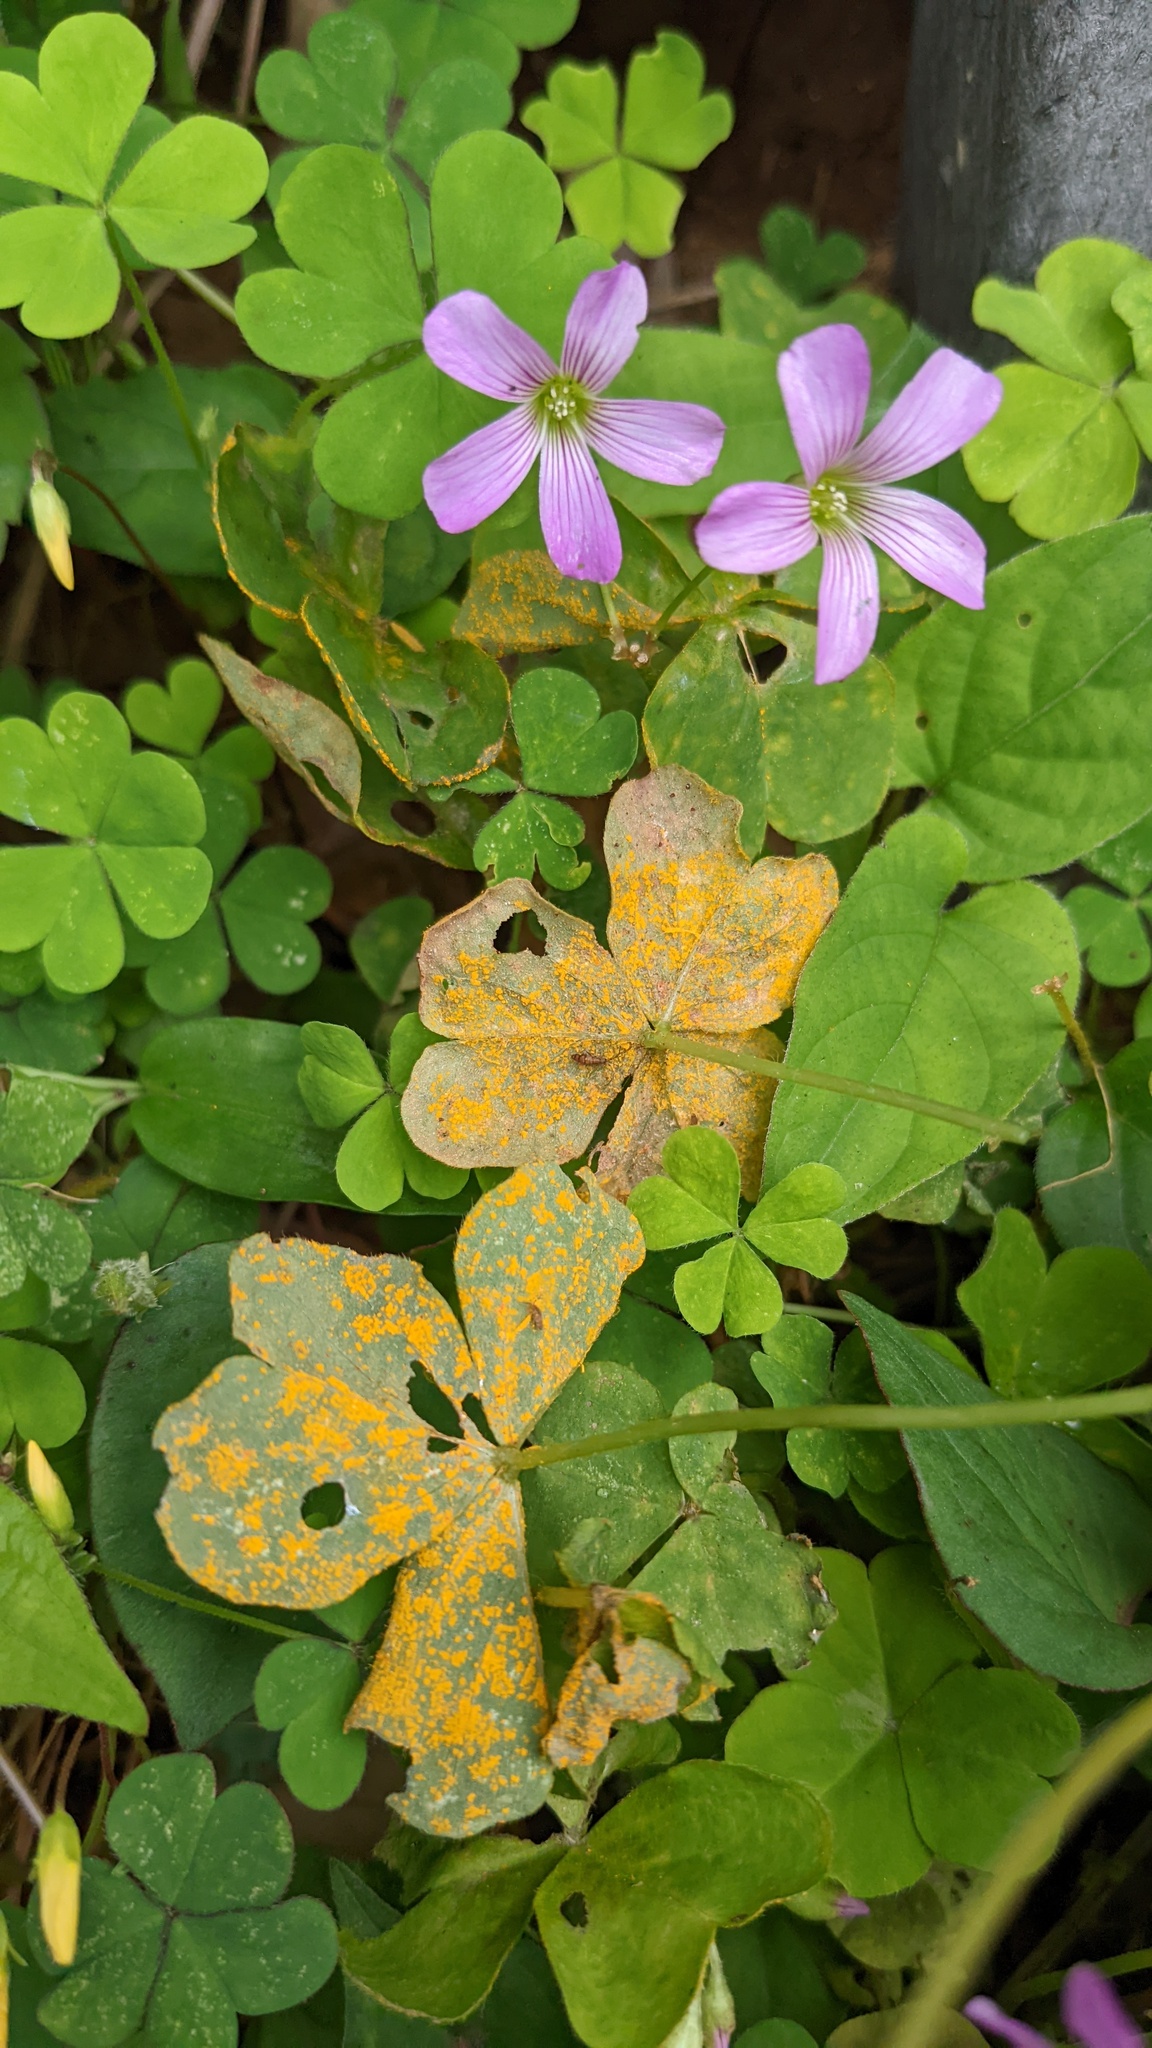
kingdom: Fungi
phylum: Basidiomycota
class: Pucciniomycetes
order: Pucciniales
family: Pucciniaceae
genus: Puccinia
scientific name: Puccinia oxalidis
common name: Oxalis rust
